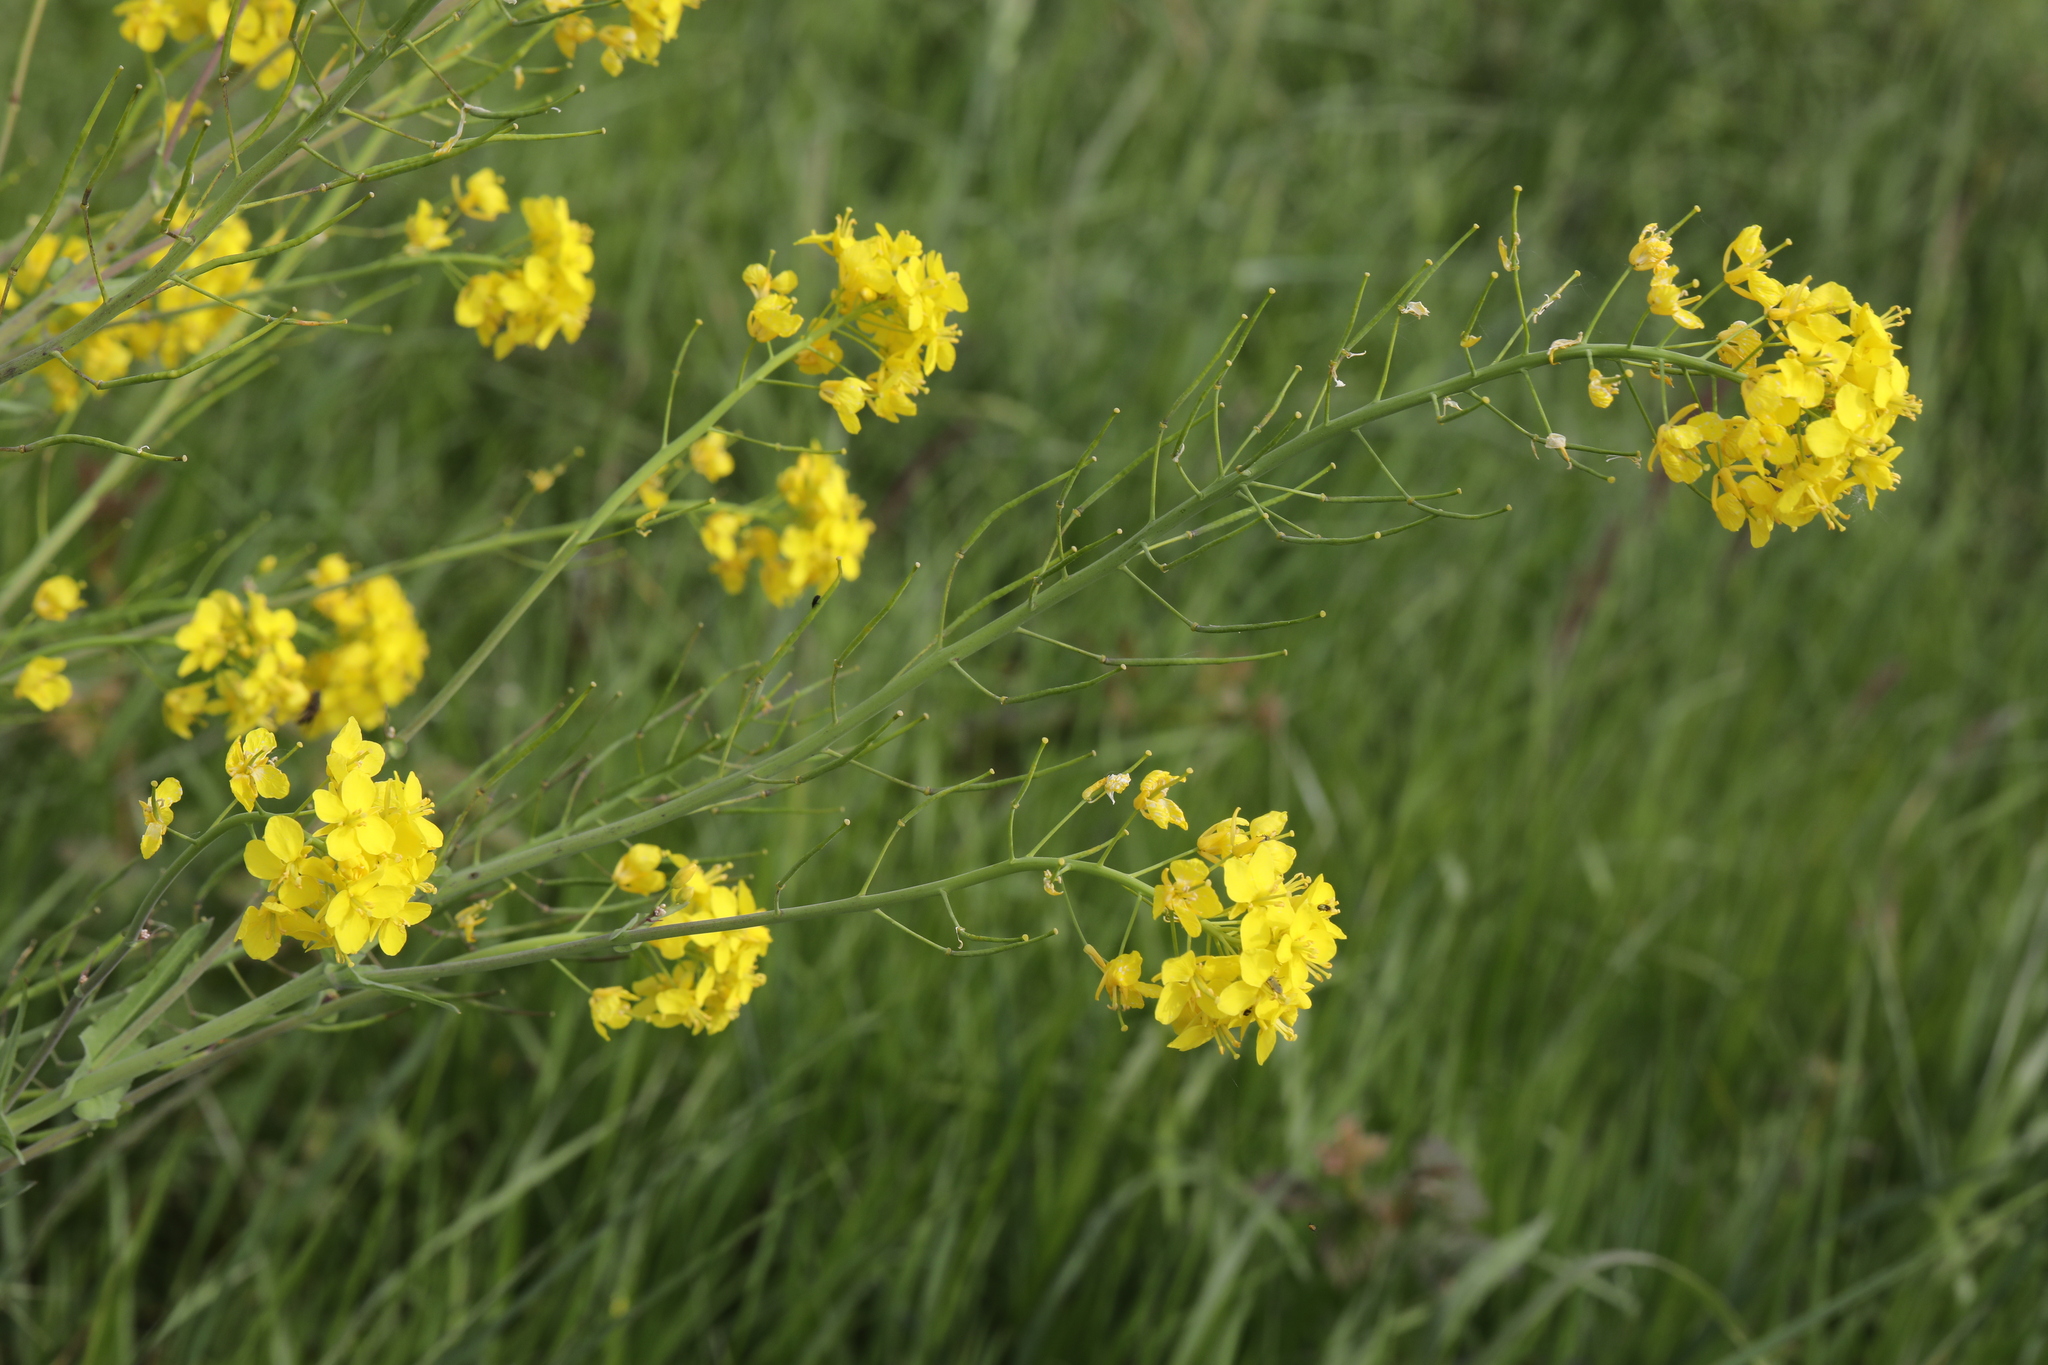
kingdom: Plantae
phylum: Tracheophyta
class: Magnoliopsida
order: Brassicales
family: Brassicaceae
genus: Brassica
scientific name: Brassica rapa
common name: Field mustard
